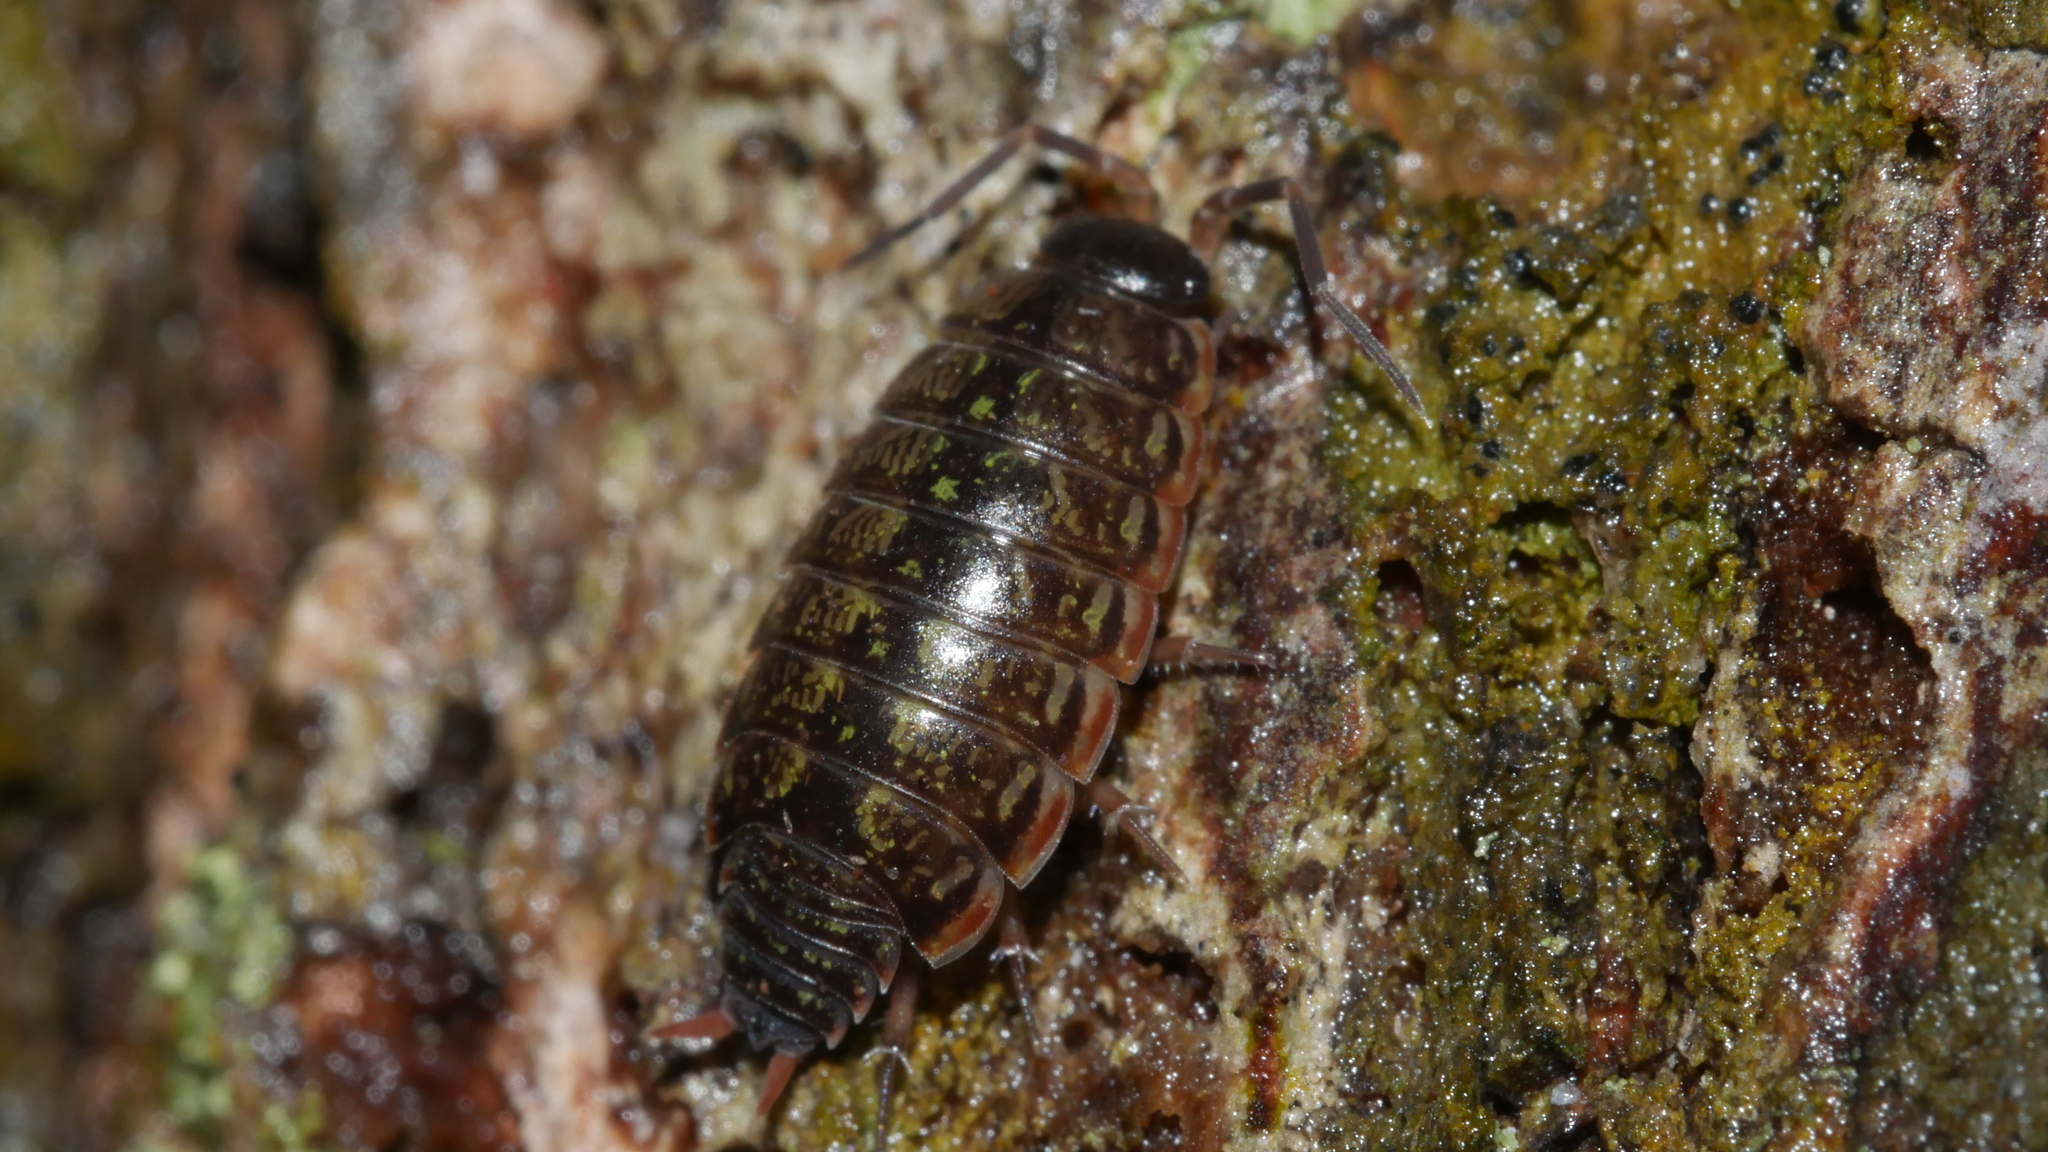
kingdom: Animalia
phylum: Arthropoda
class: Malacostraca
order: Isopoda
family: Philosciidae
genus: Philoscia
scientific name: Philoscia muscorum
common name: Common striped woodlouse
